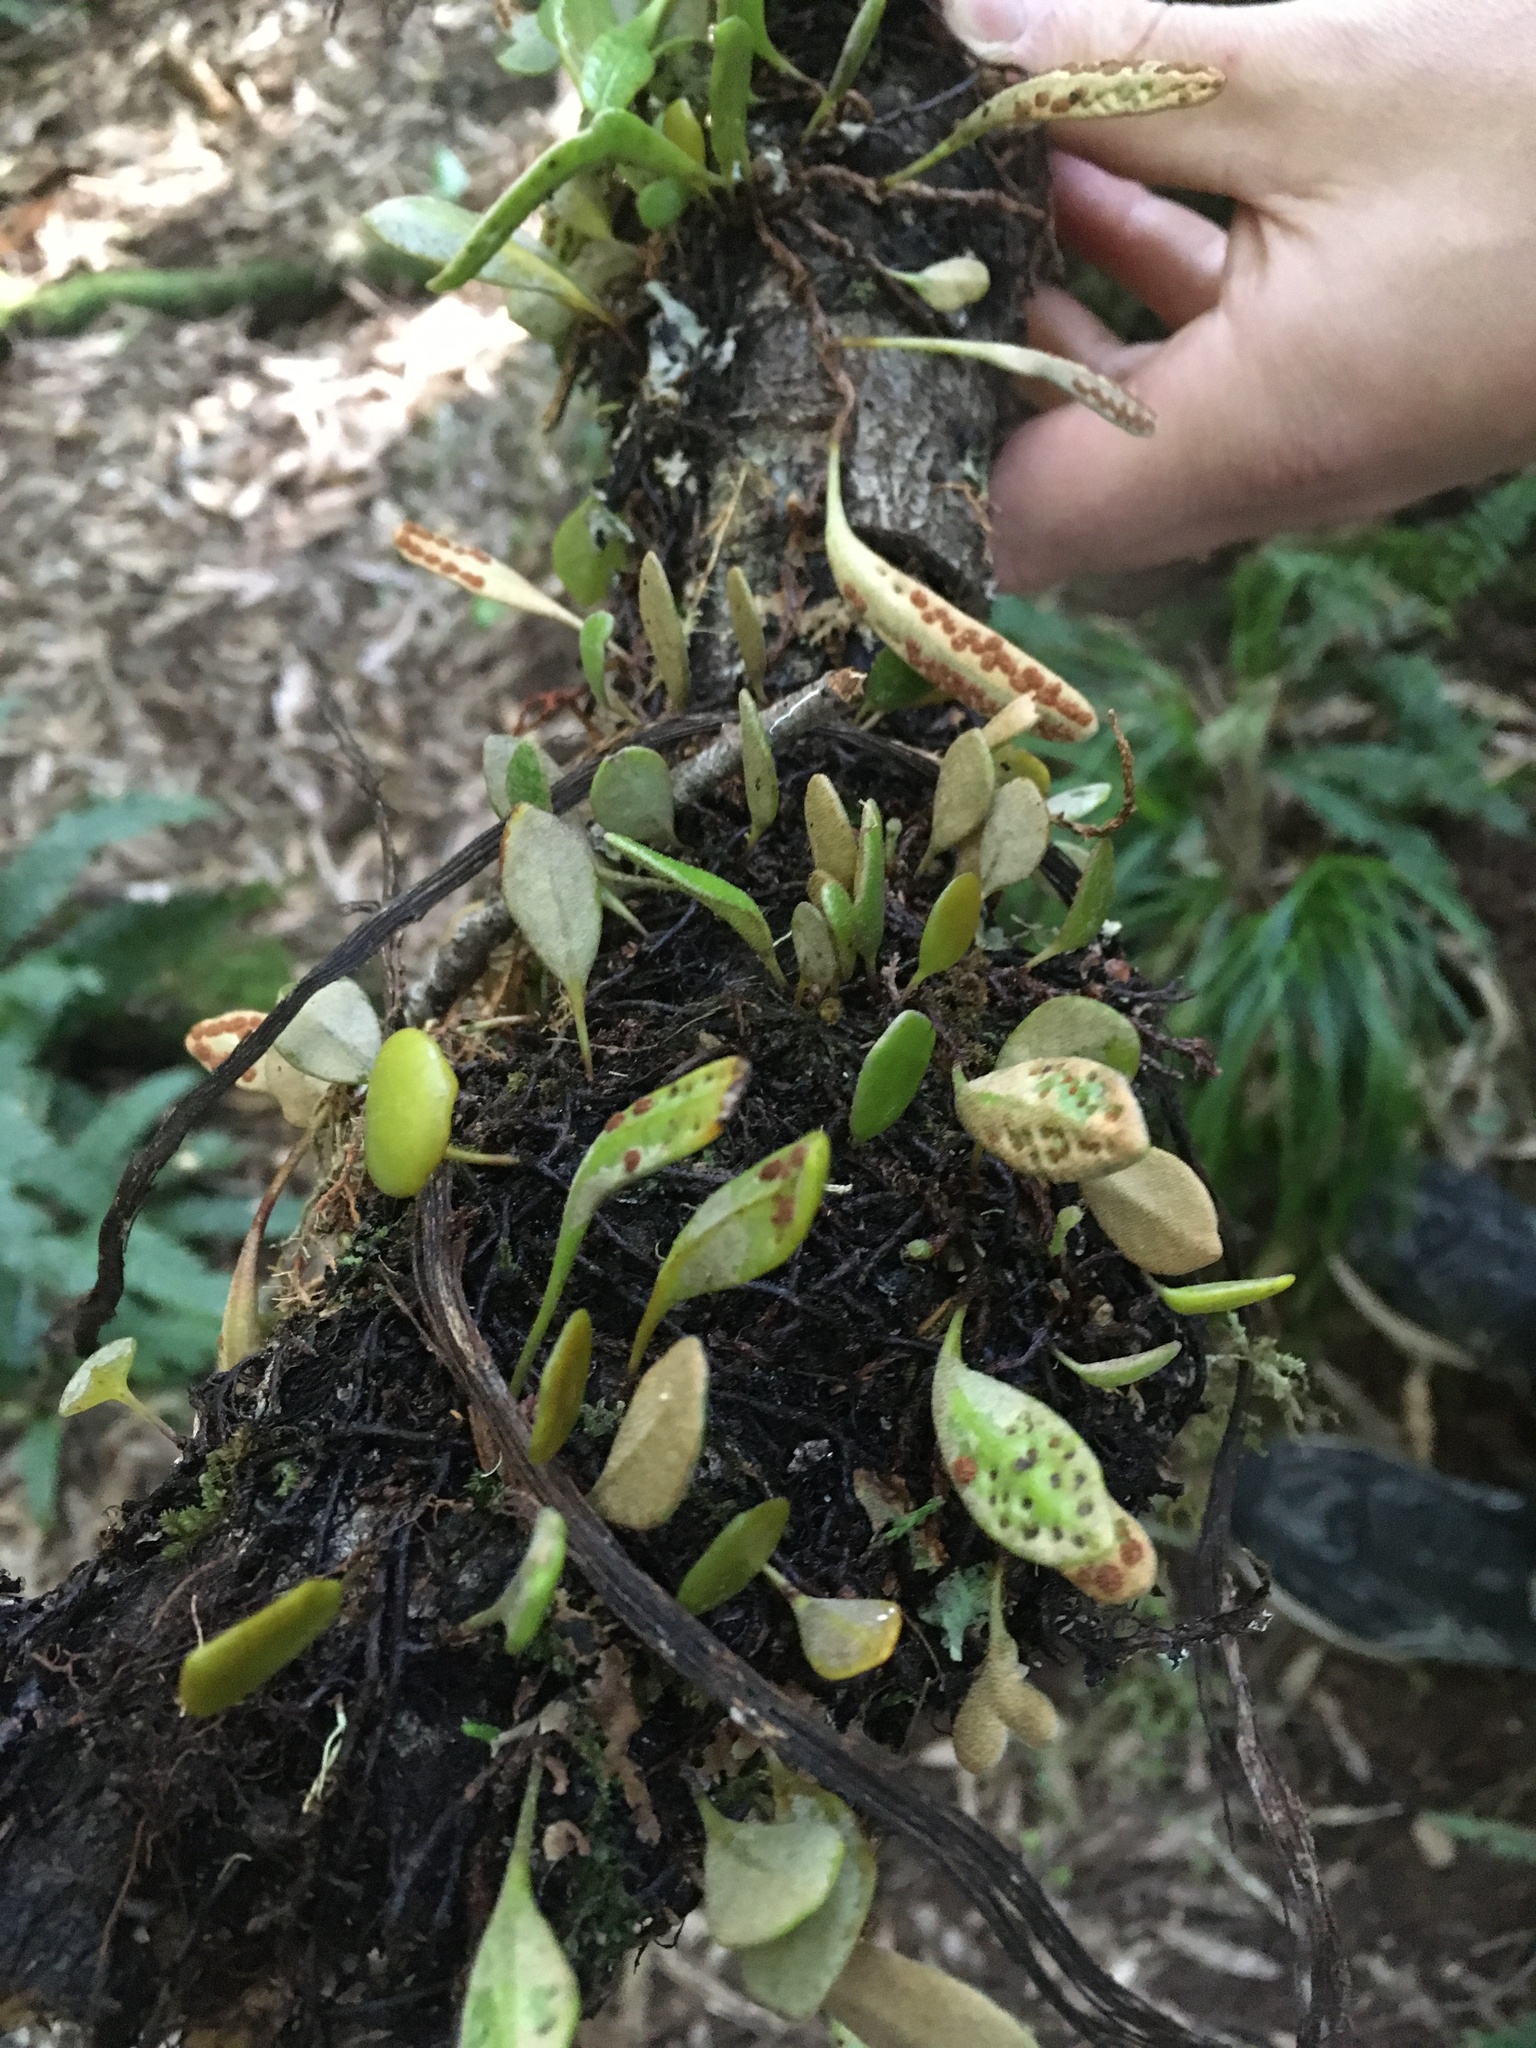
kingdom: Plantae
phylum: Tracheophyta
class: Polypodiopsida
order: Polypodiales
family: Polypodiaceae
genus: Pyrrosia
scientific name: Pyrrosia eleagnifolia
